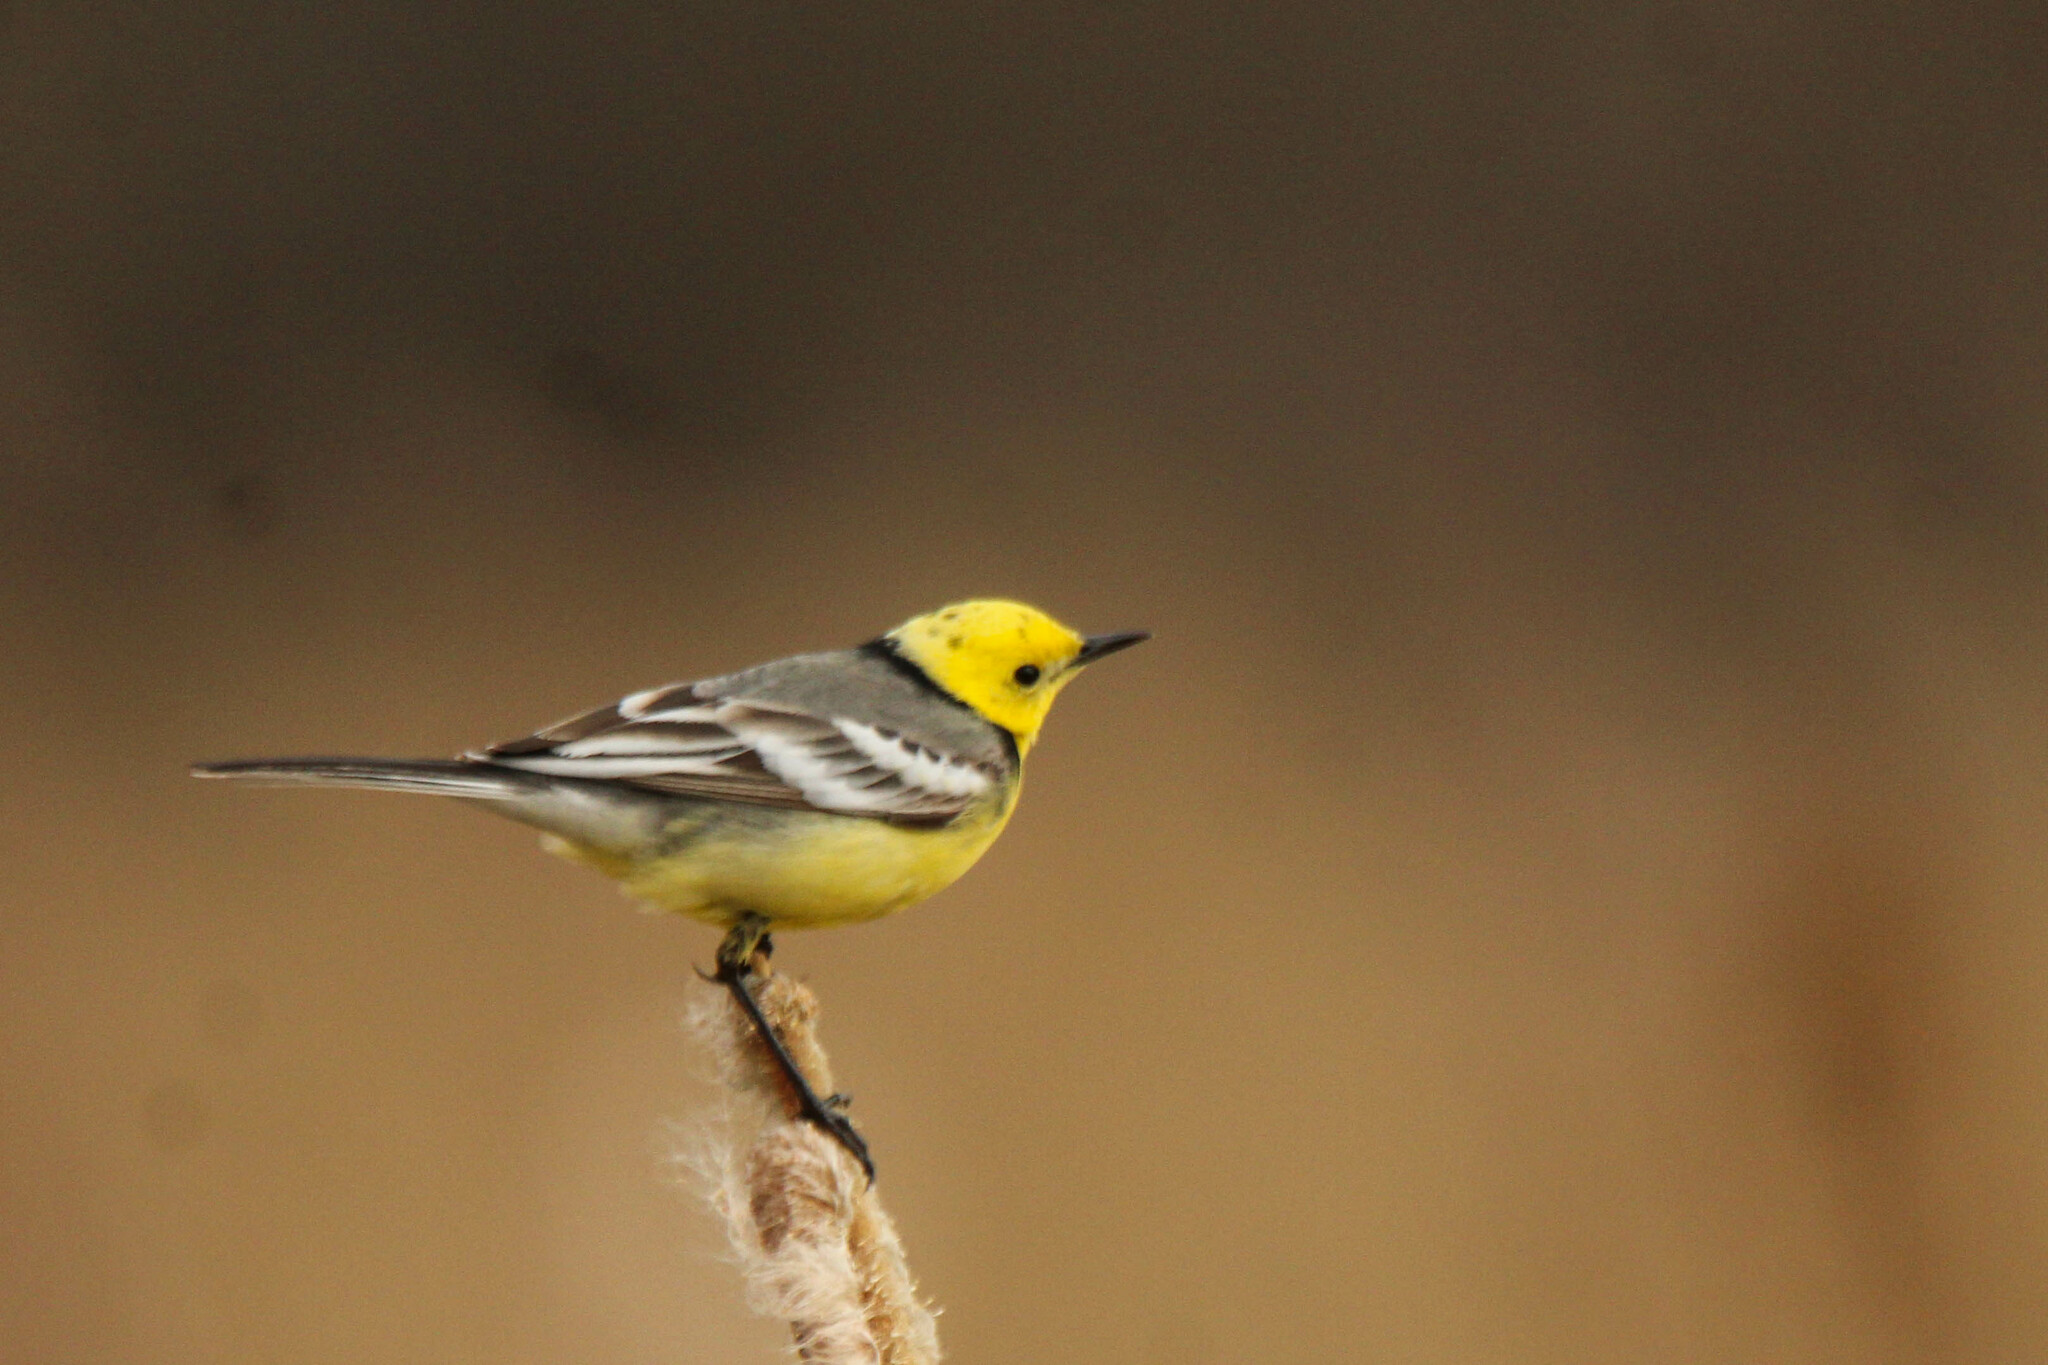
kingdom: Animalia
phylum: Chordata
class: Aves
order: Passeriformes
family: Motacillidae
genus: Motacilla
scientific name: Motacilla citreola
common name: Citrine wagtail
